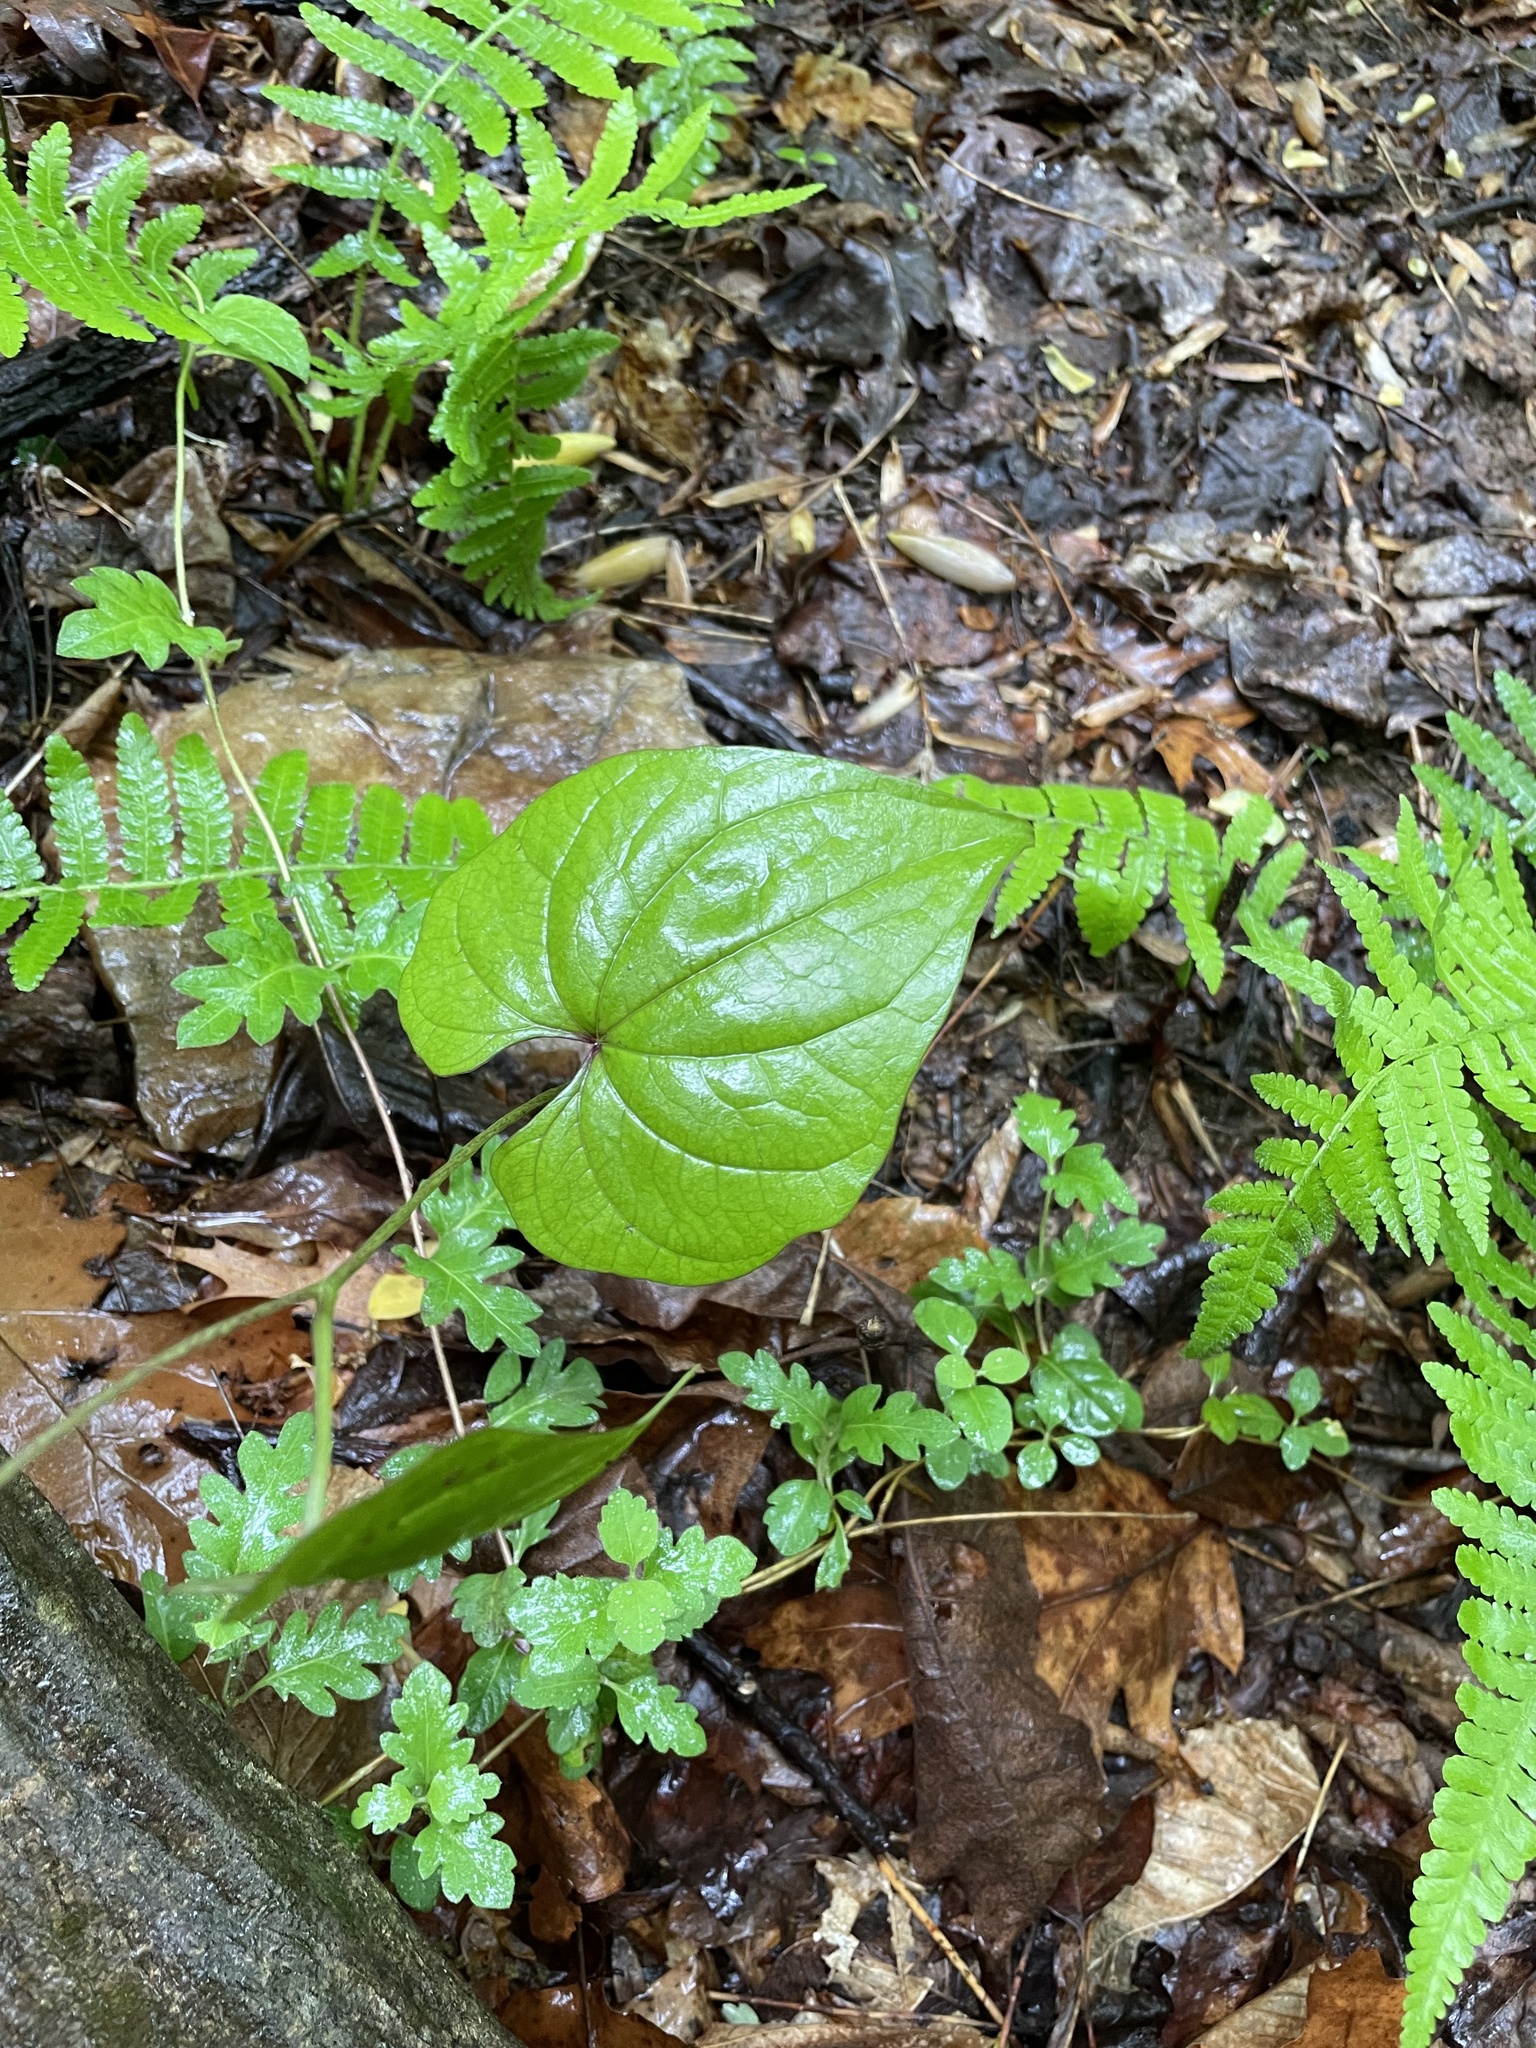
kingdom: Plantae
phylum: Tracheophyta
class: Liliopsida
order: Dioscoreales
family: Dioscoreaceae
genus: Dioscorea
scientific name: Dioscorea polystachya
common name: Chinese yam
